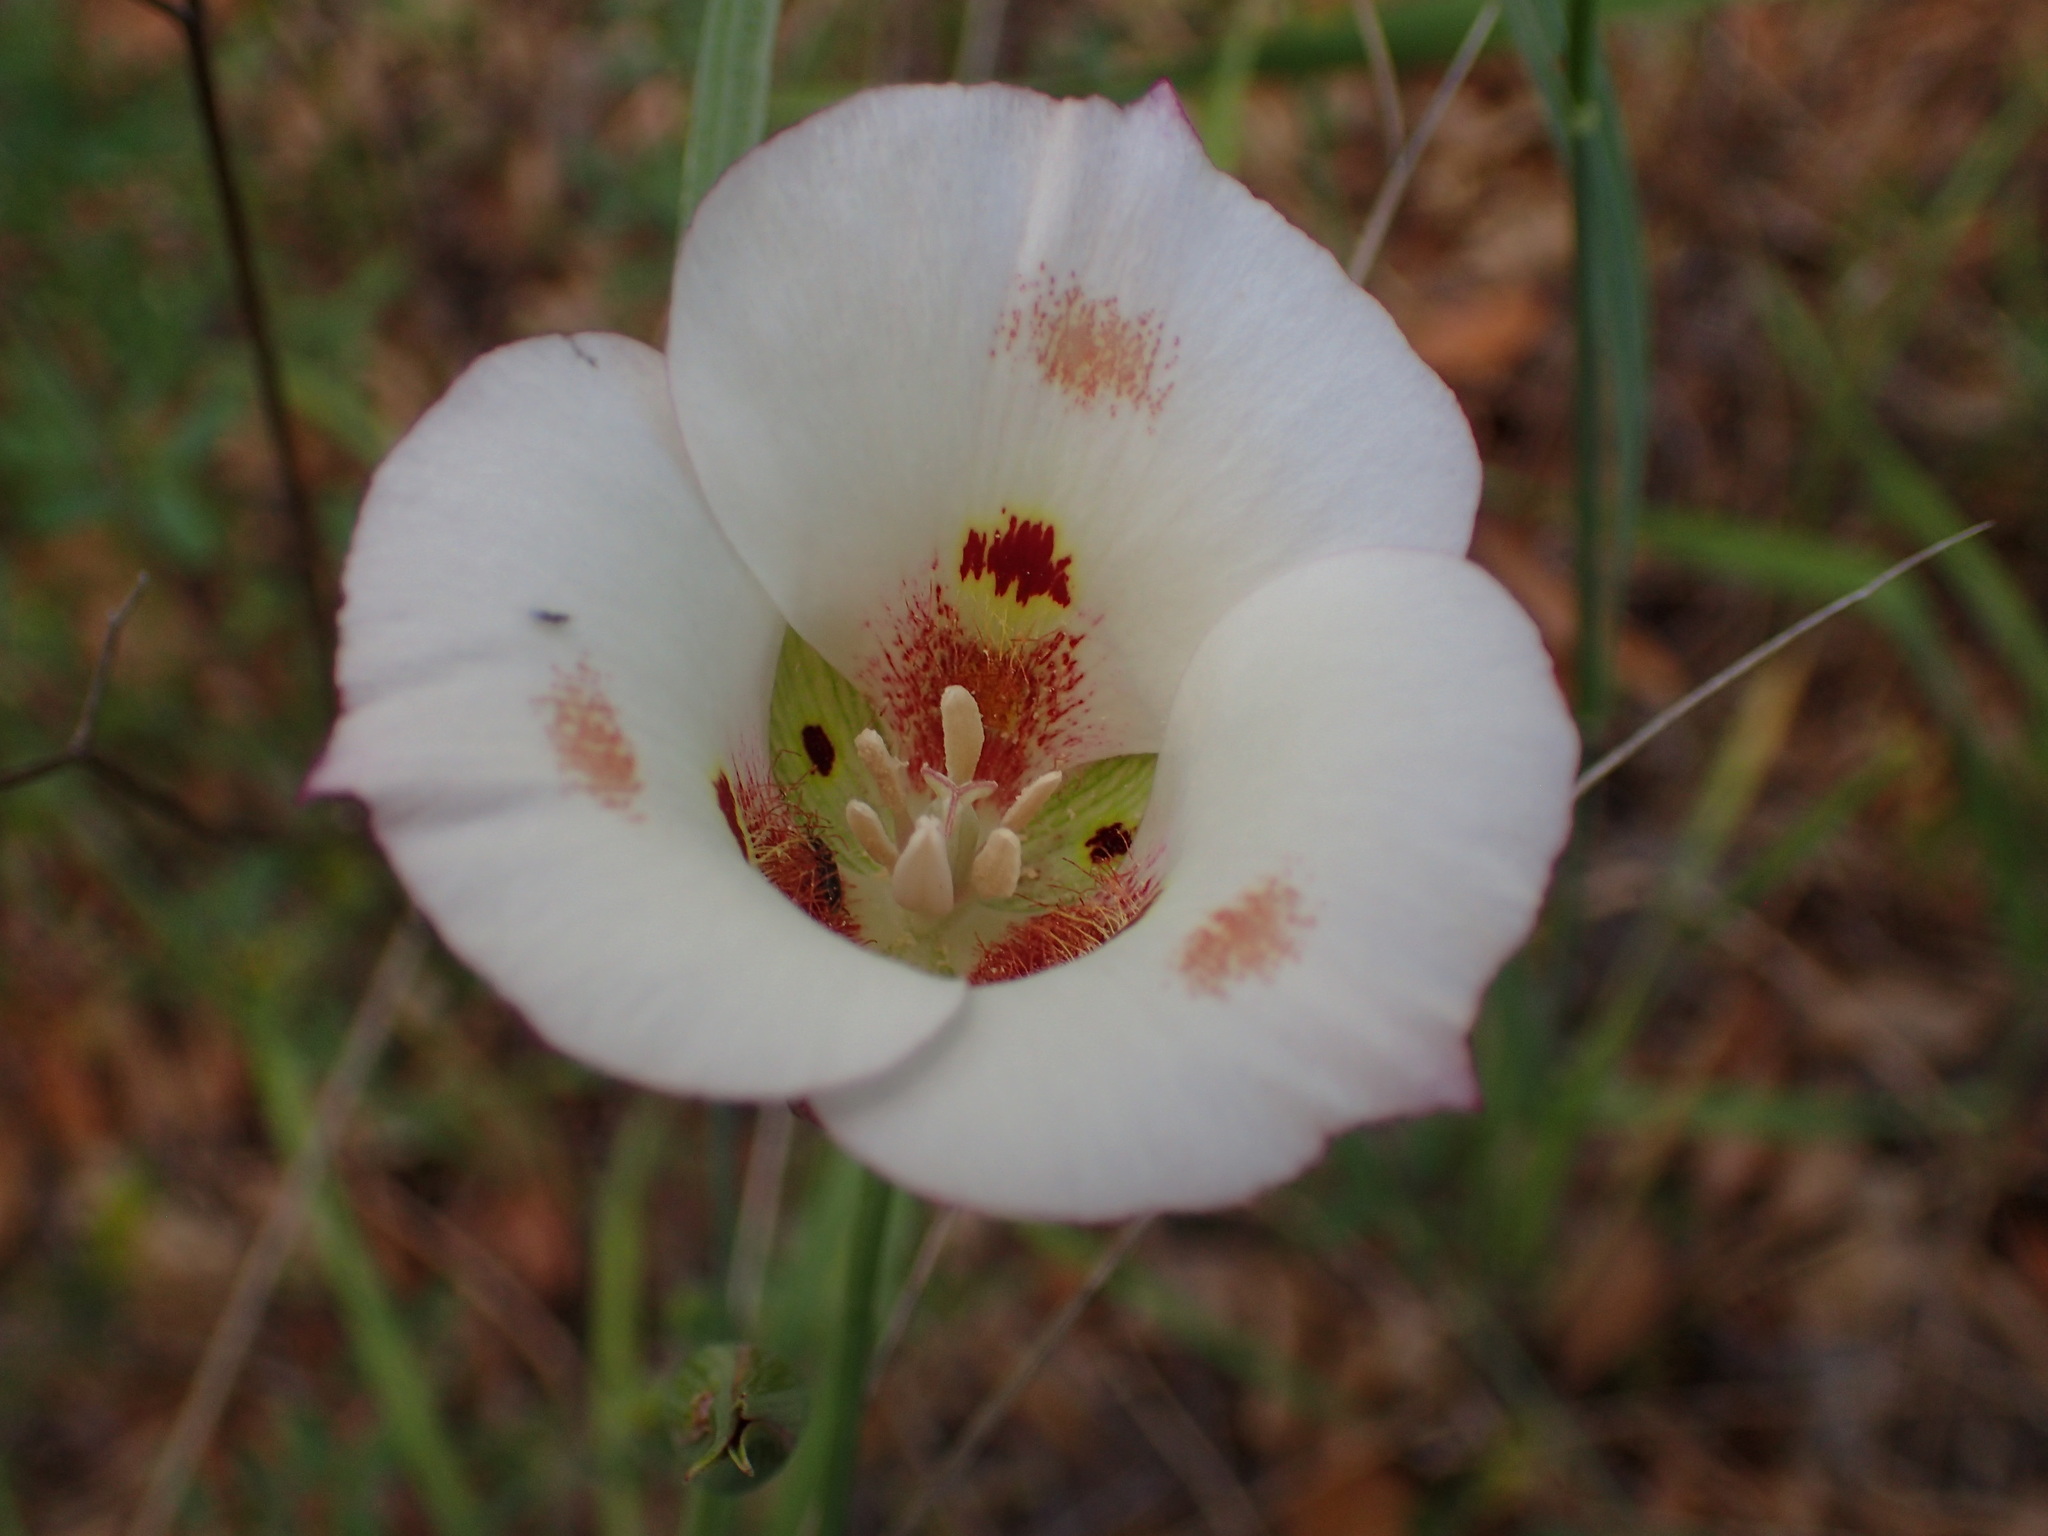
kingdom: Plantae
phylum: Tracheophyta
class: Liliopsida
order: Liliales
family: Liliaceae
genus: Calochortus
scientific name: Calochortus venustus
